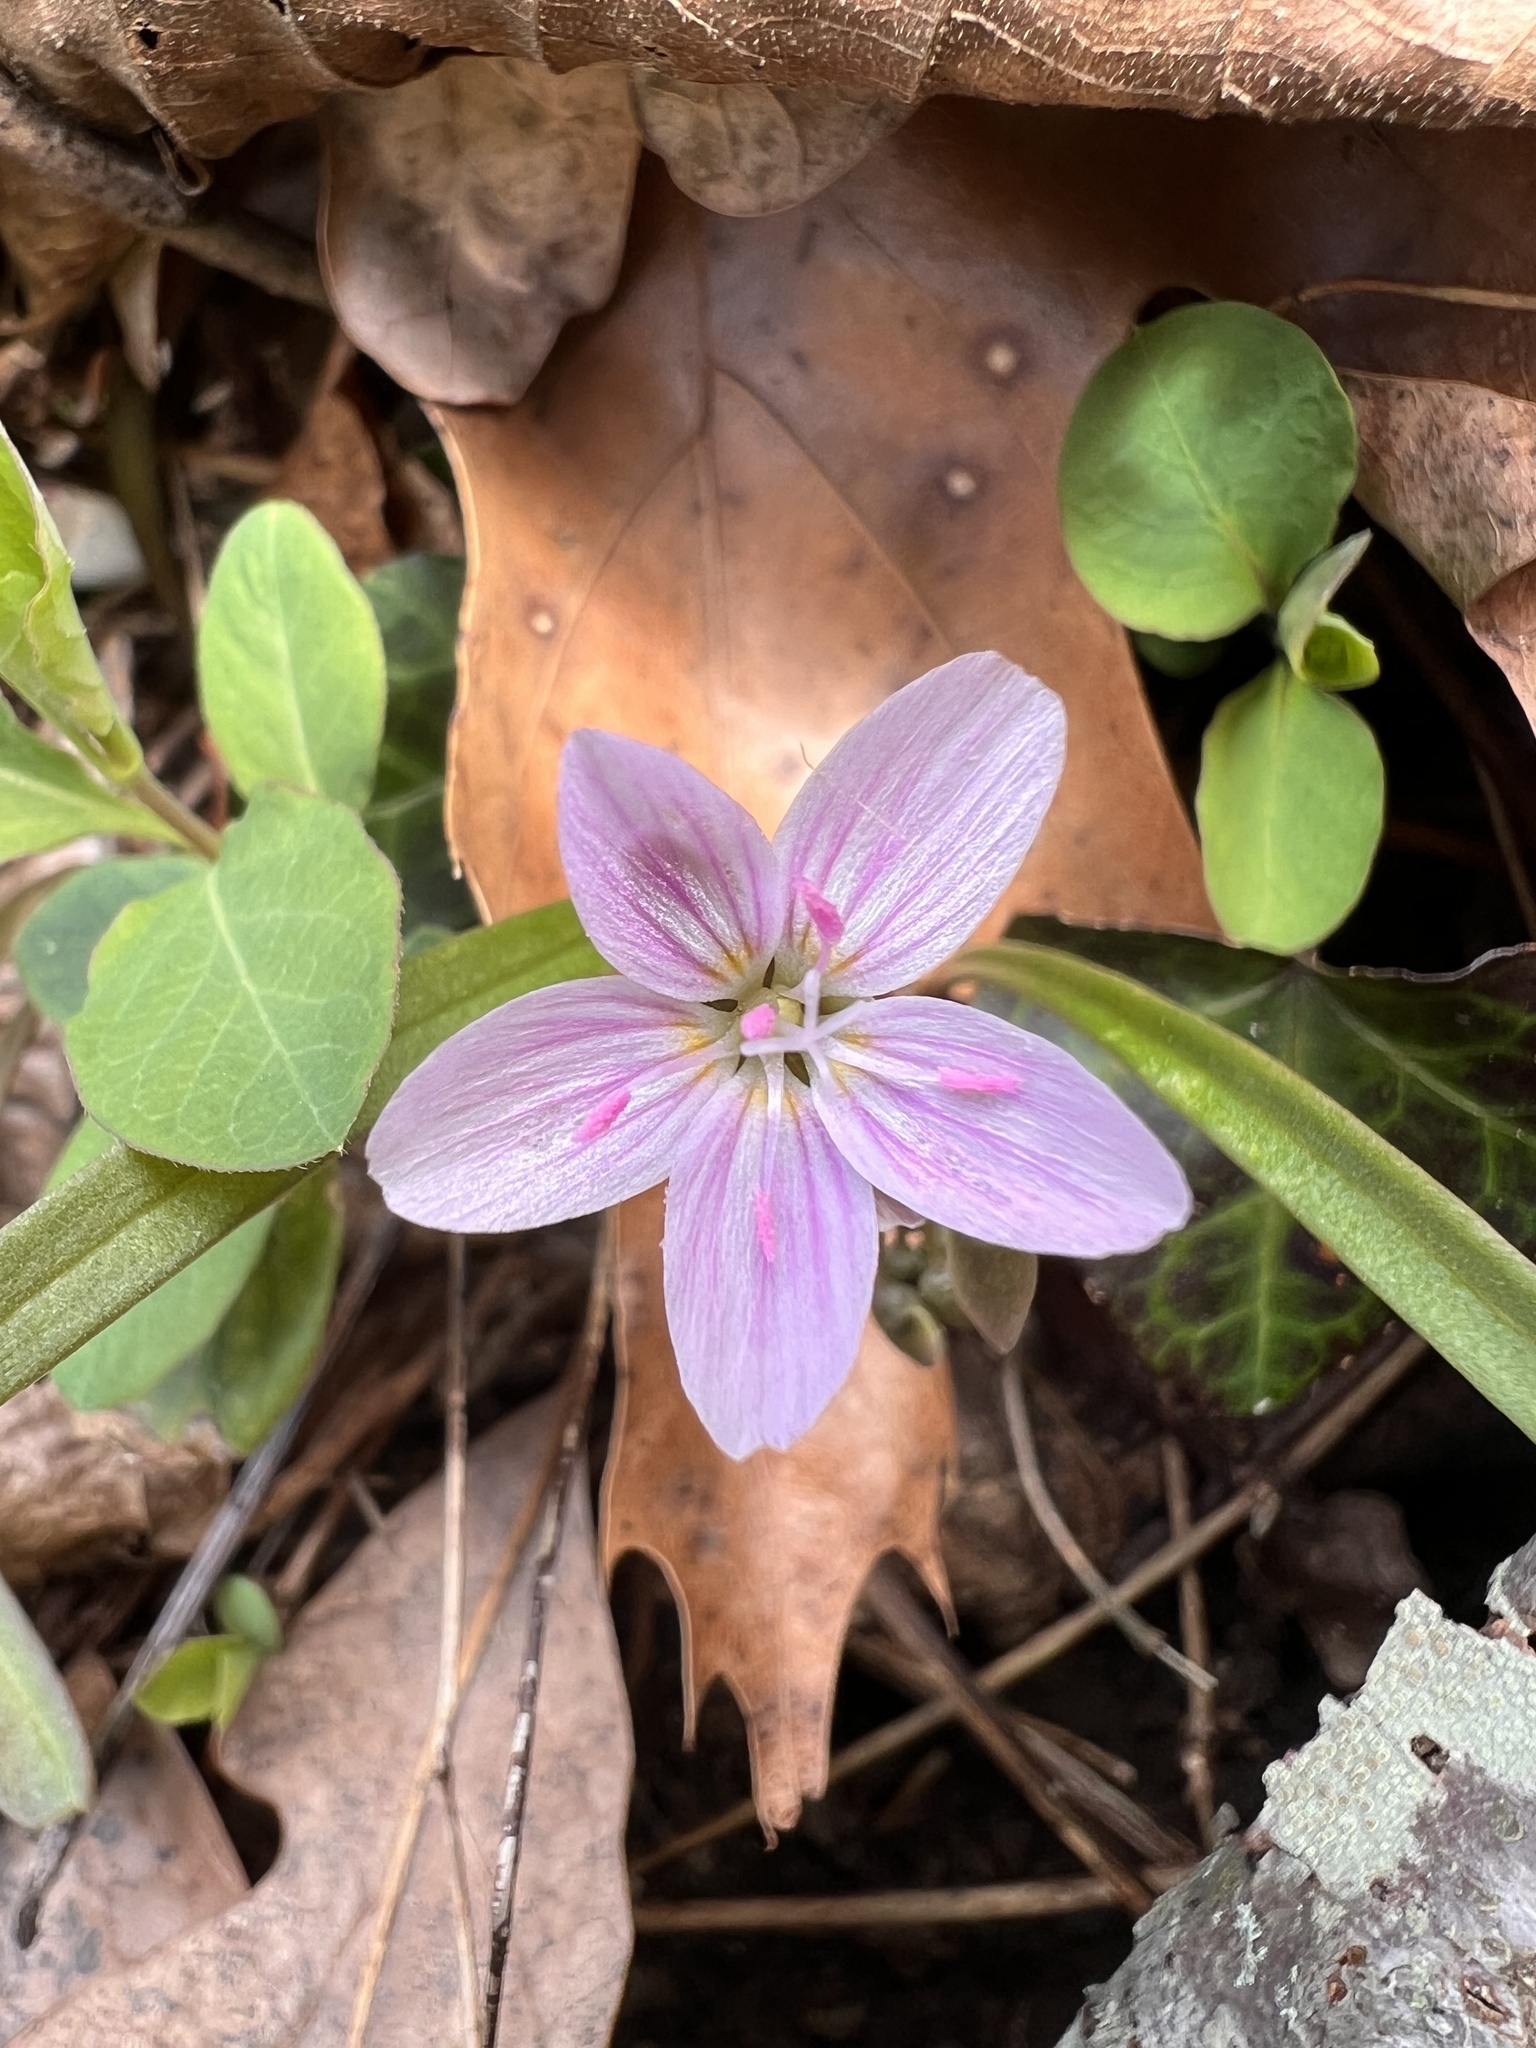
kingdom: Plantae
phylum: Tracheophyta
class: Magnoliopsida
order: Caryophyllales
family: Montiaceae
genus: Claytonia
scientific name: Claytonia virginica
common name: Virginia springbeauty
